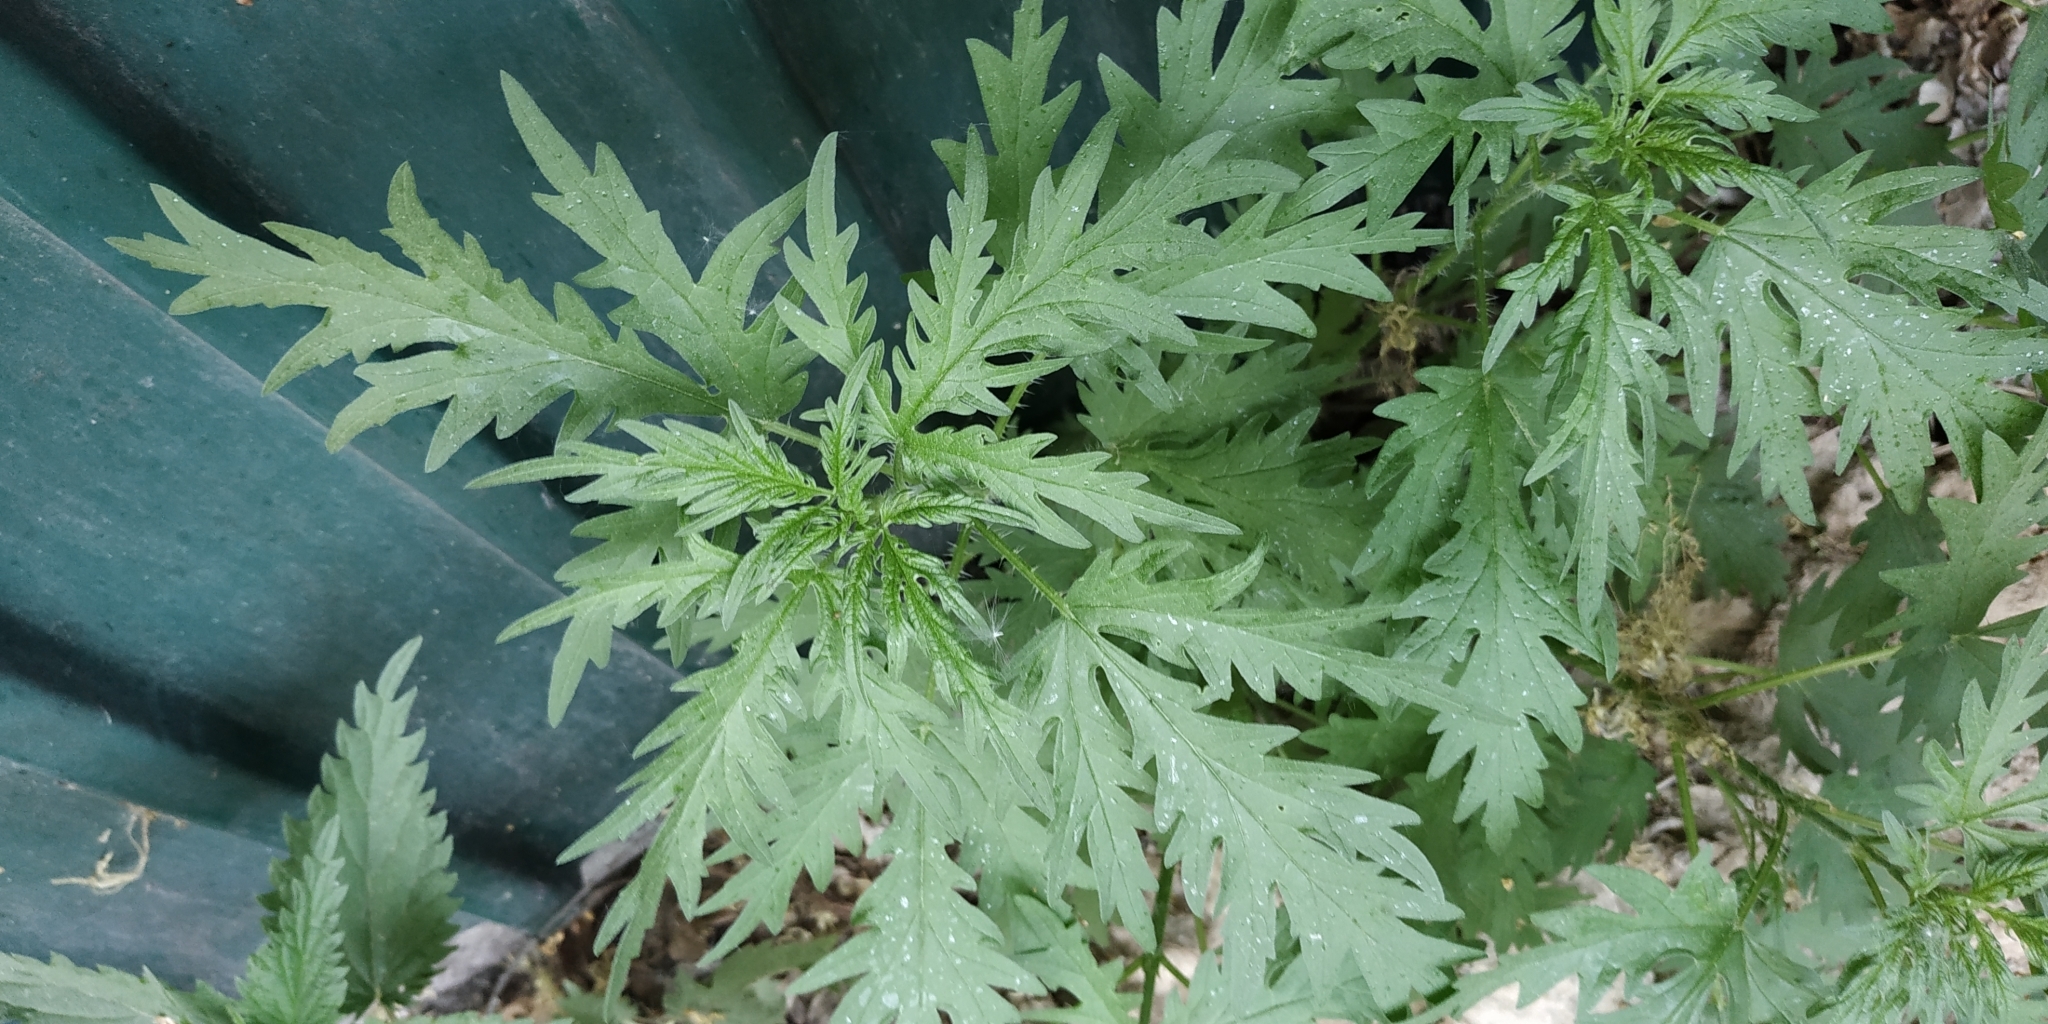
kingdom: Plantae
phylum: Tracheophyta
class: Magnoliopsida
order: Rosales
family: Urticaceae
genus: Urtica
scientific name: Urtica cannabina
